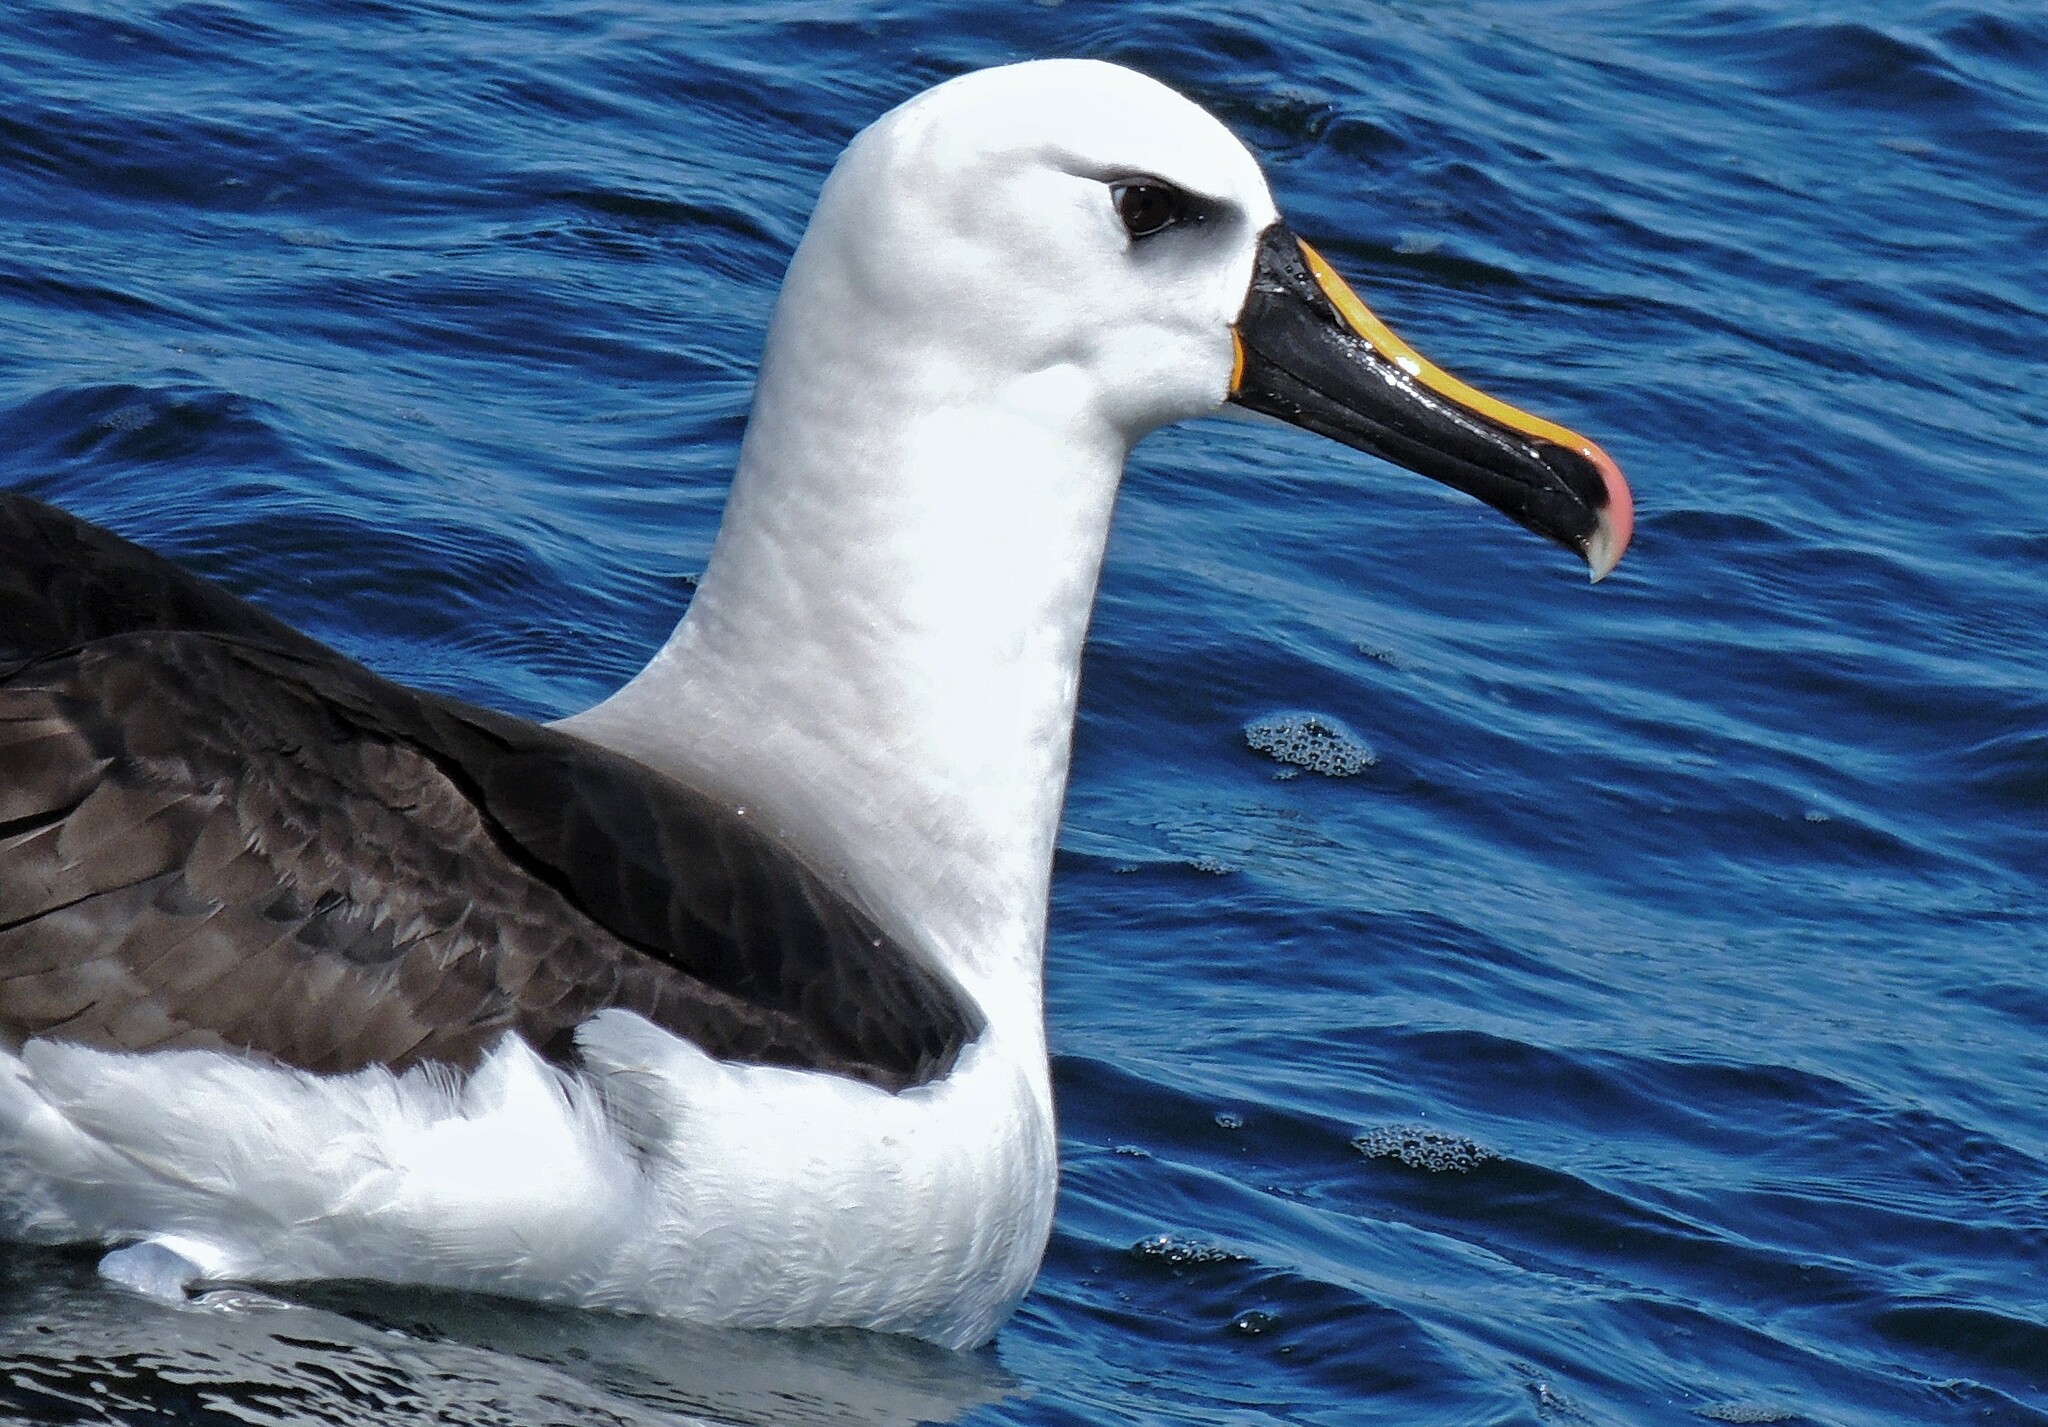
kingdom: Animalia
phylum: Chordata
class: Aves
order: Procellariiformes
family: Diomedeidae
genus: Thalassarche
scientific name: Thalassarche chlororhynchos
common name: Atlantic yellow-nosed albatross
